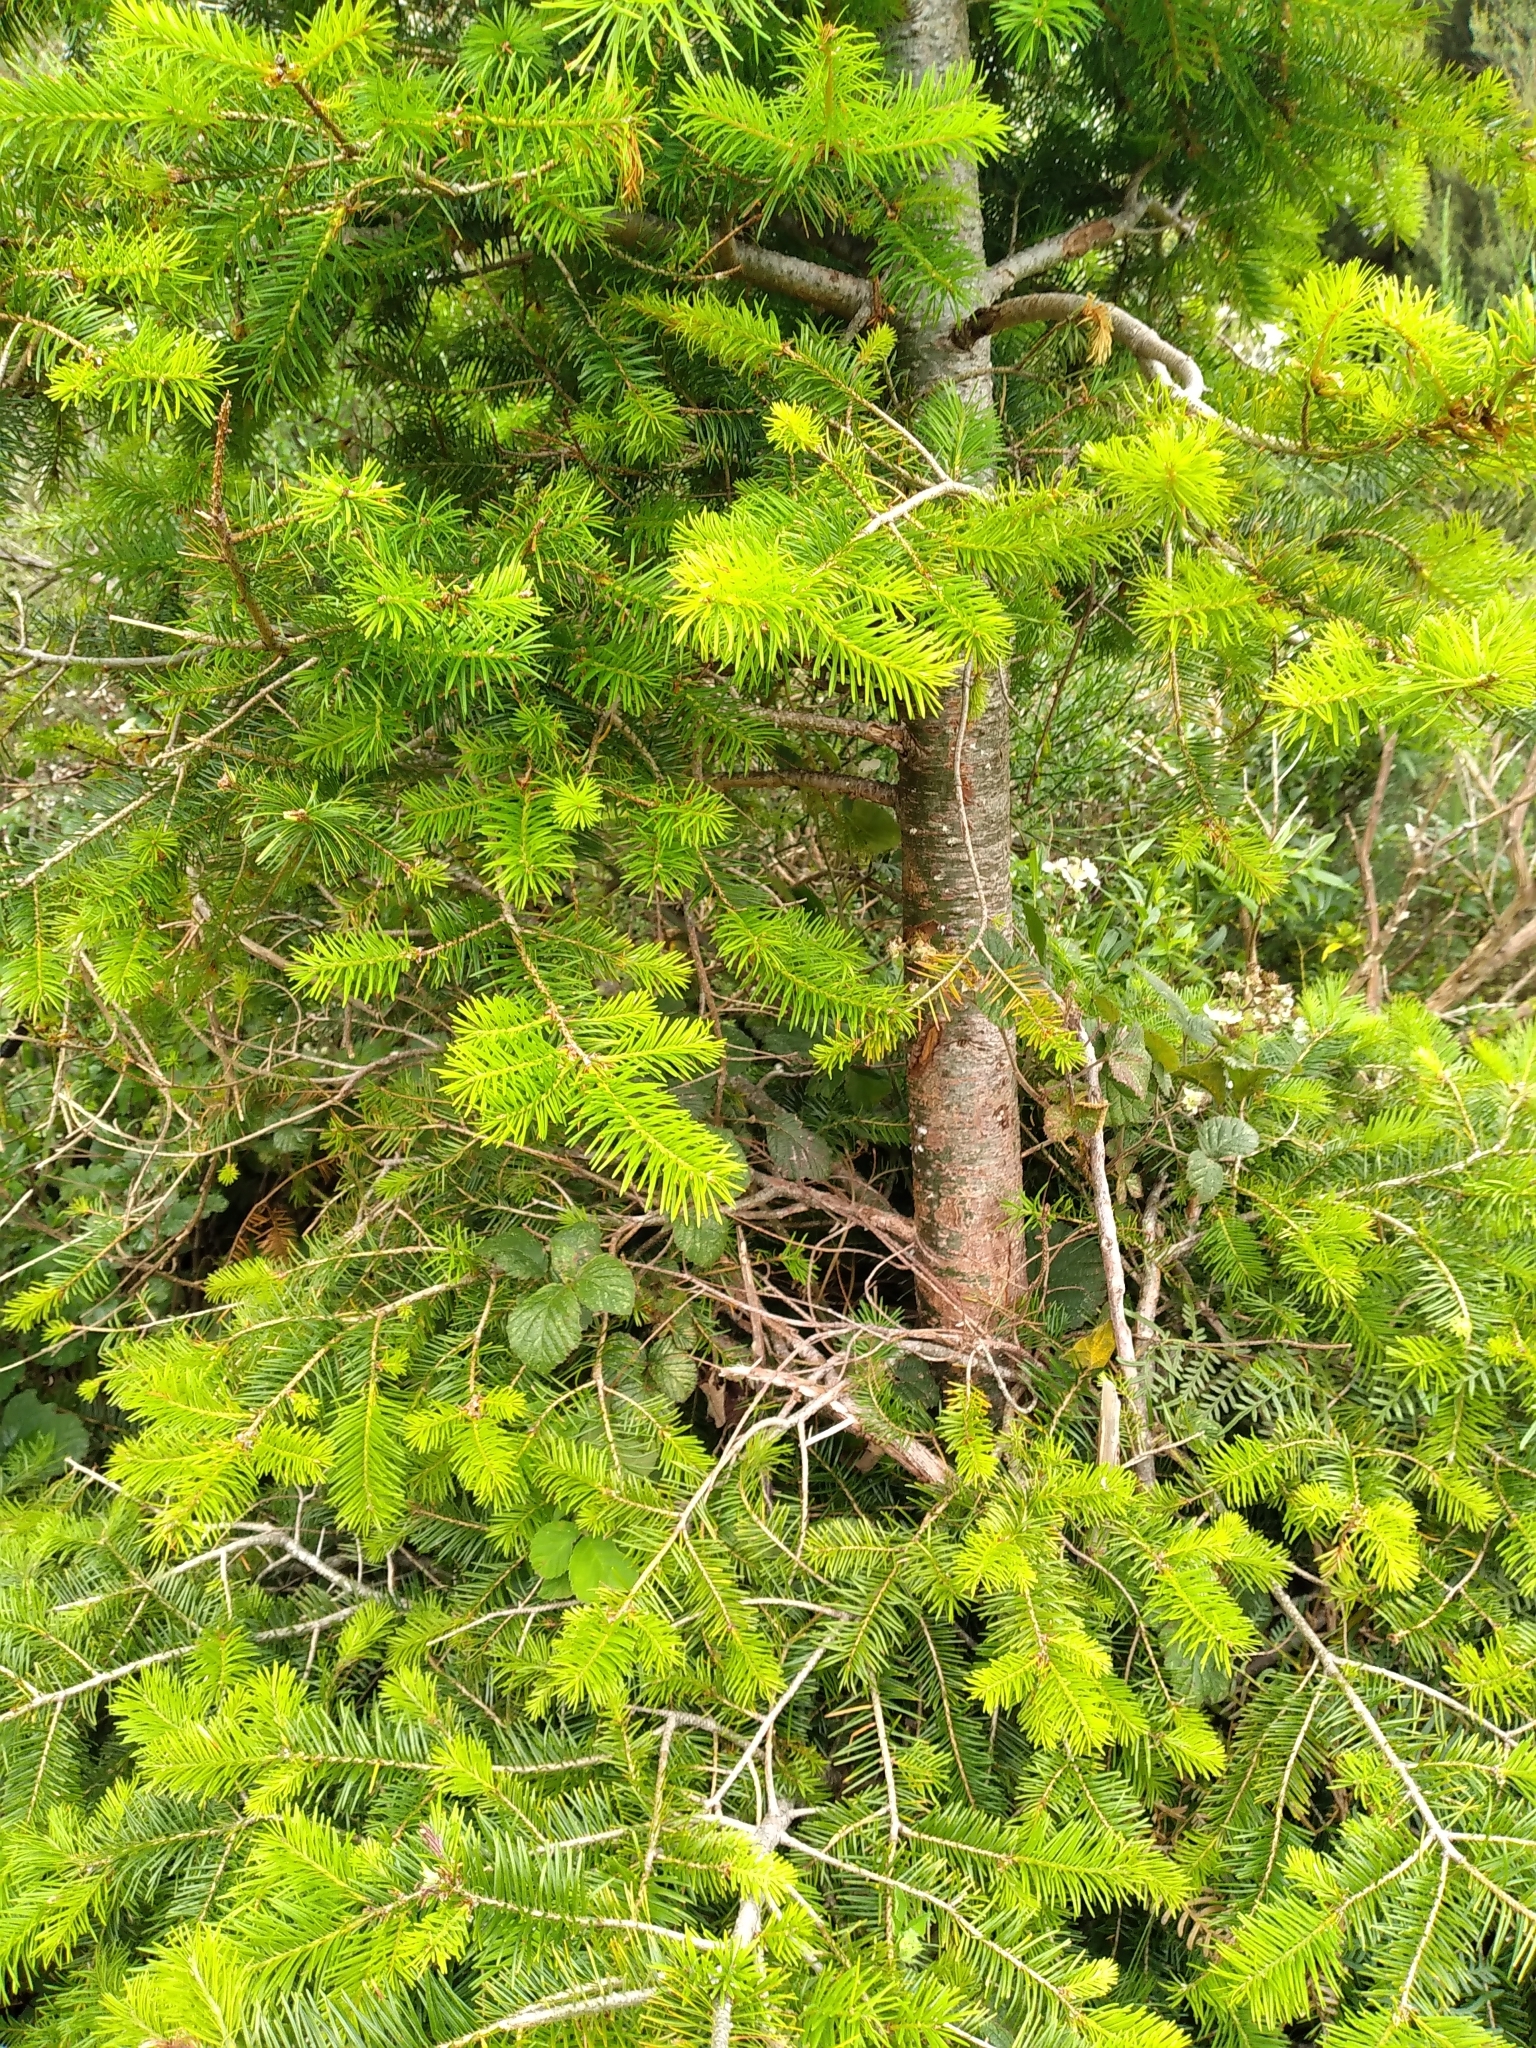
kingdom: Plantae
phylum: Tracheophyta
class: Pinopsida
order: Pinales
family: Pinaceae
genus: Pseudotsuga
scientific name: Pseudotsuga menziesii
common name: Douglas fir
